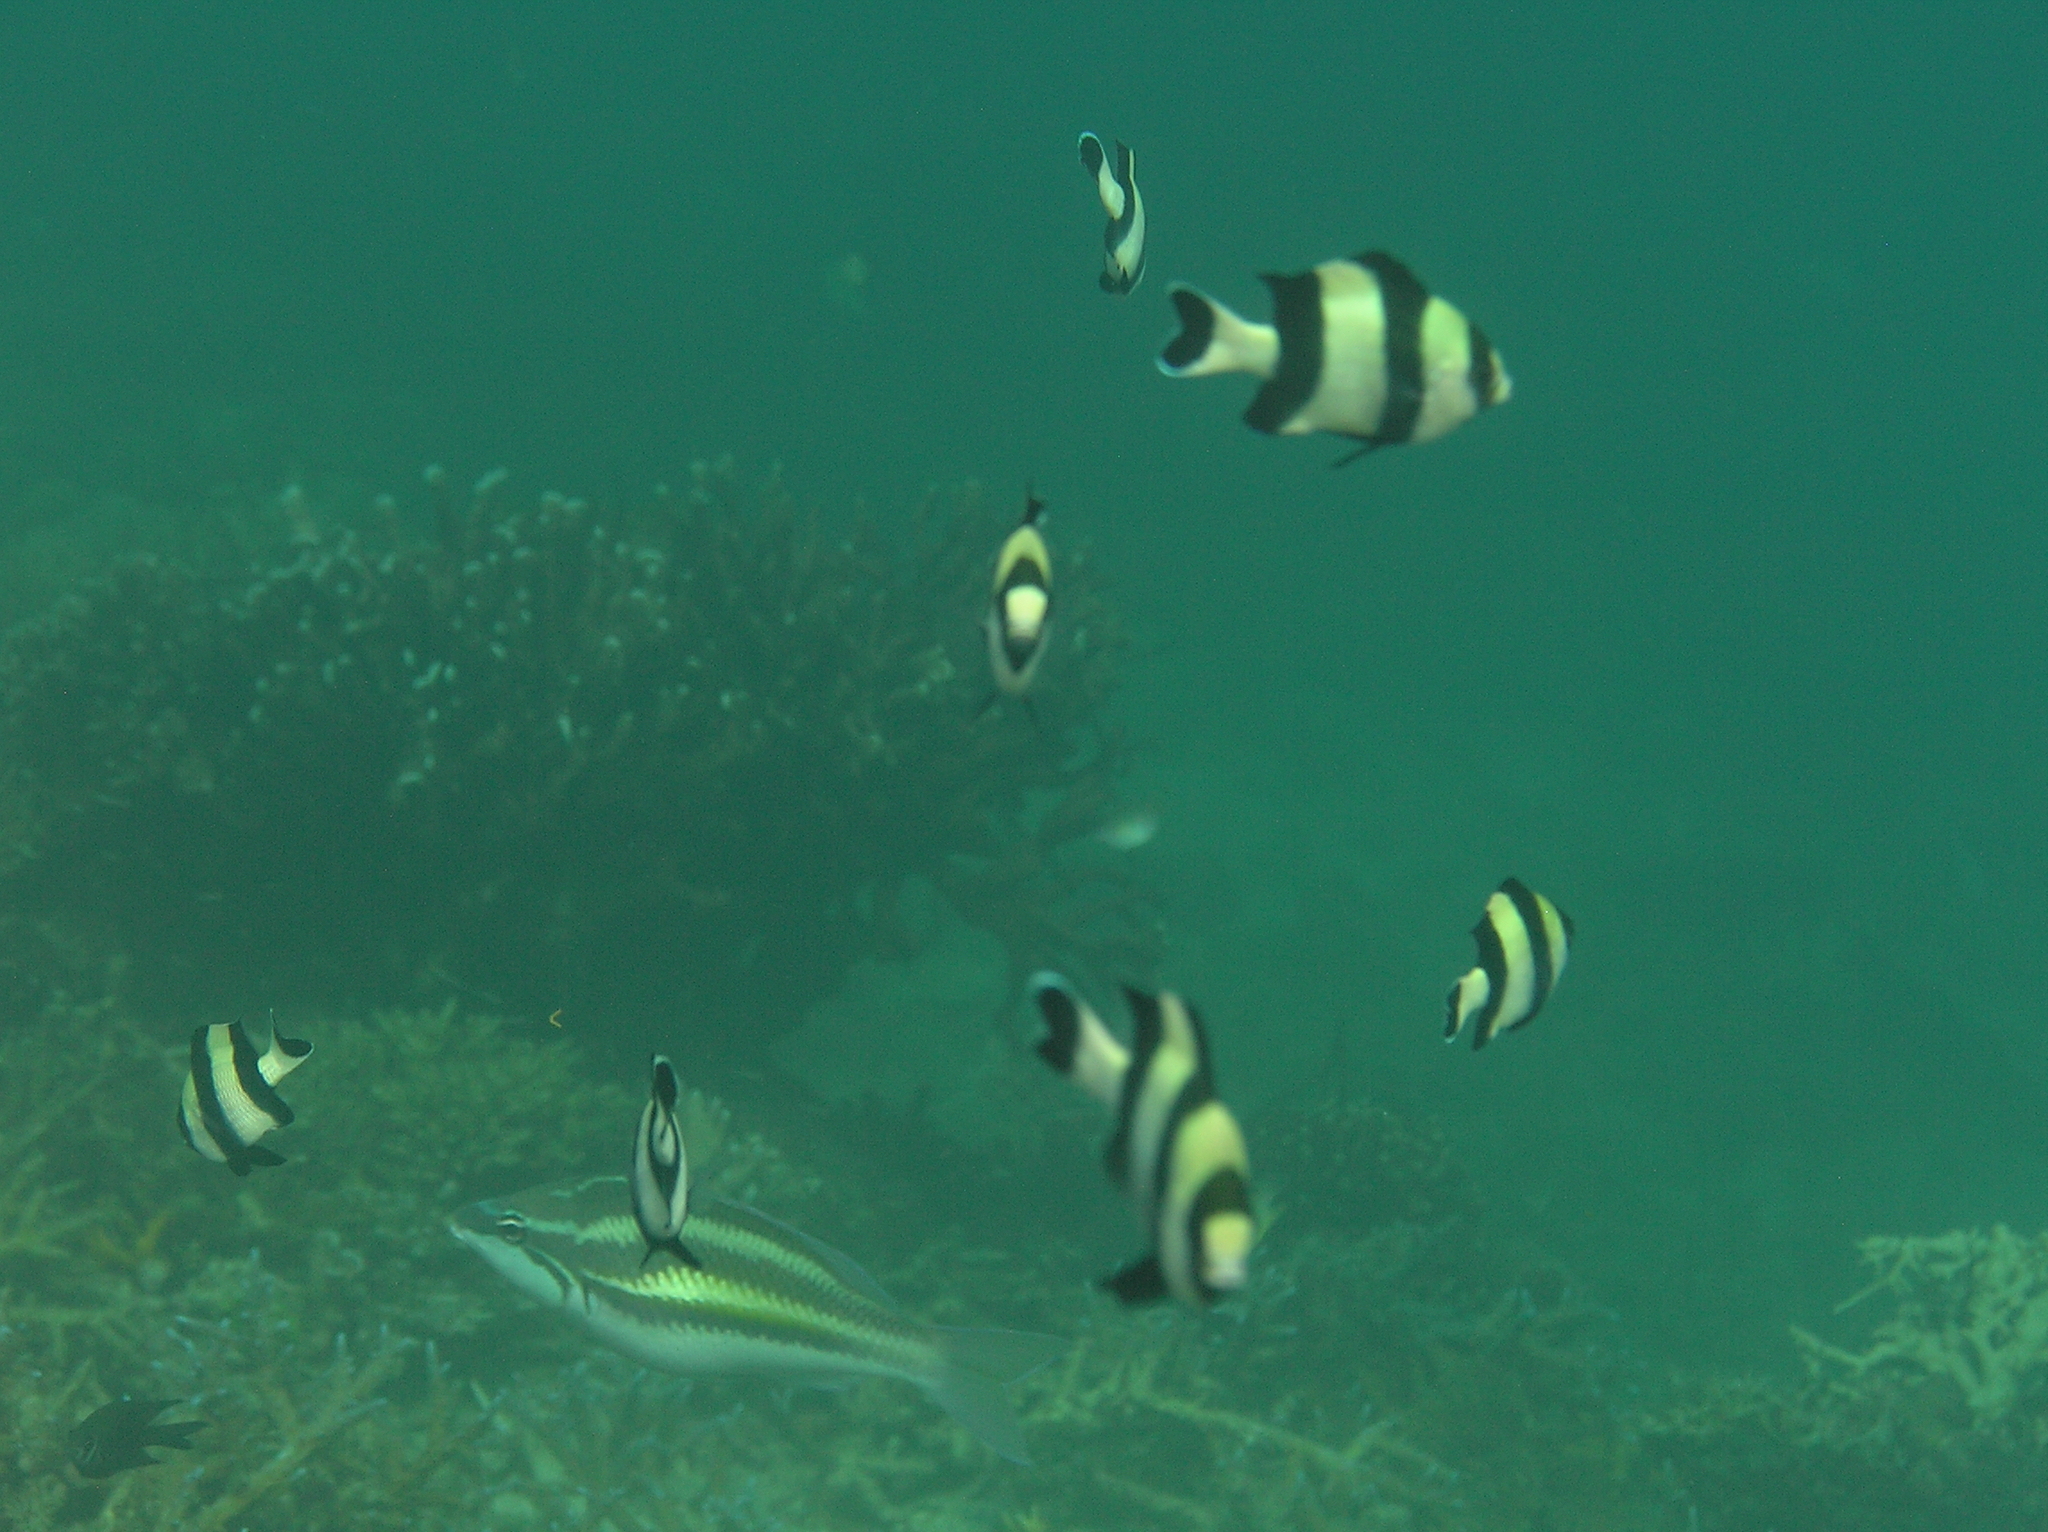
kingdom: Animalia
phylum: Chordata
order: Perciformes
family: Pomacentridae
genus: Dascyllus
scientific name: Dascyllus melanurus
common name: Black-tail dascyllus
